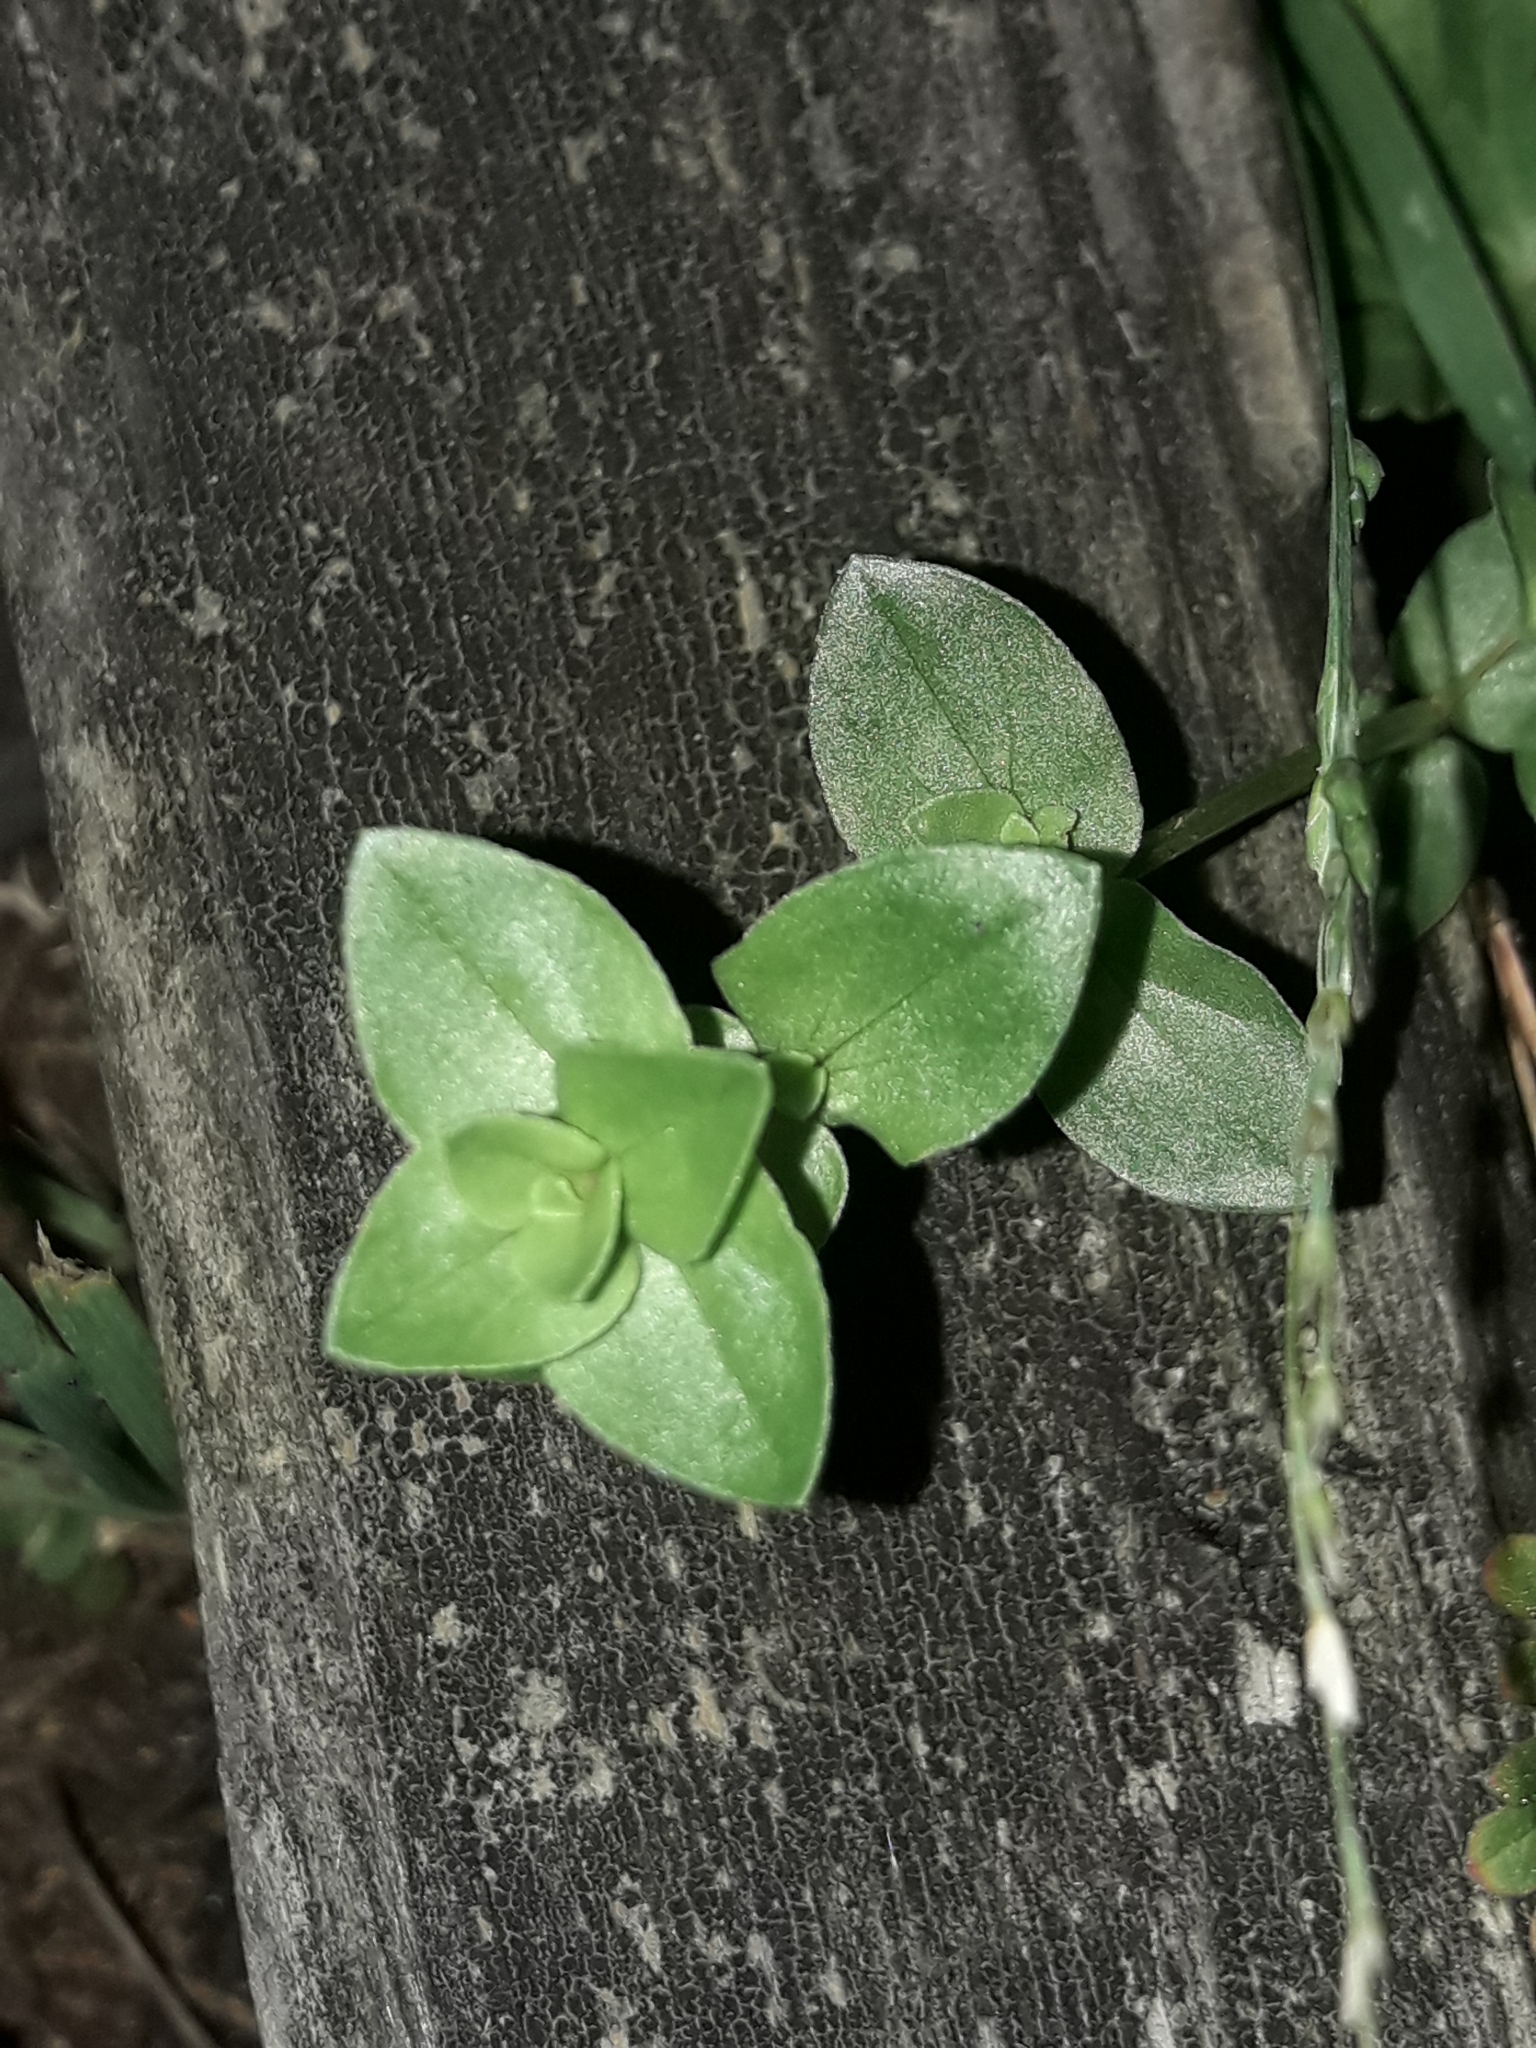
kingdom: Plantae
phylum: Tracheophyta
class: Magnoliopsida
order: Ericales
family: Primulaceae
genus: Lysimachia
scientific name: Lysimachia arvensis
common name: Scarlet pimpernel
